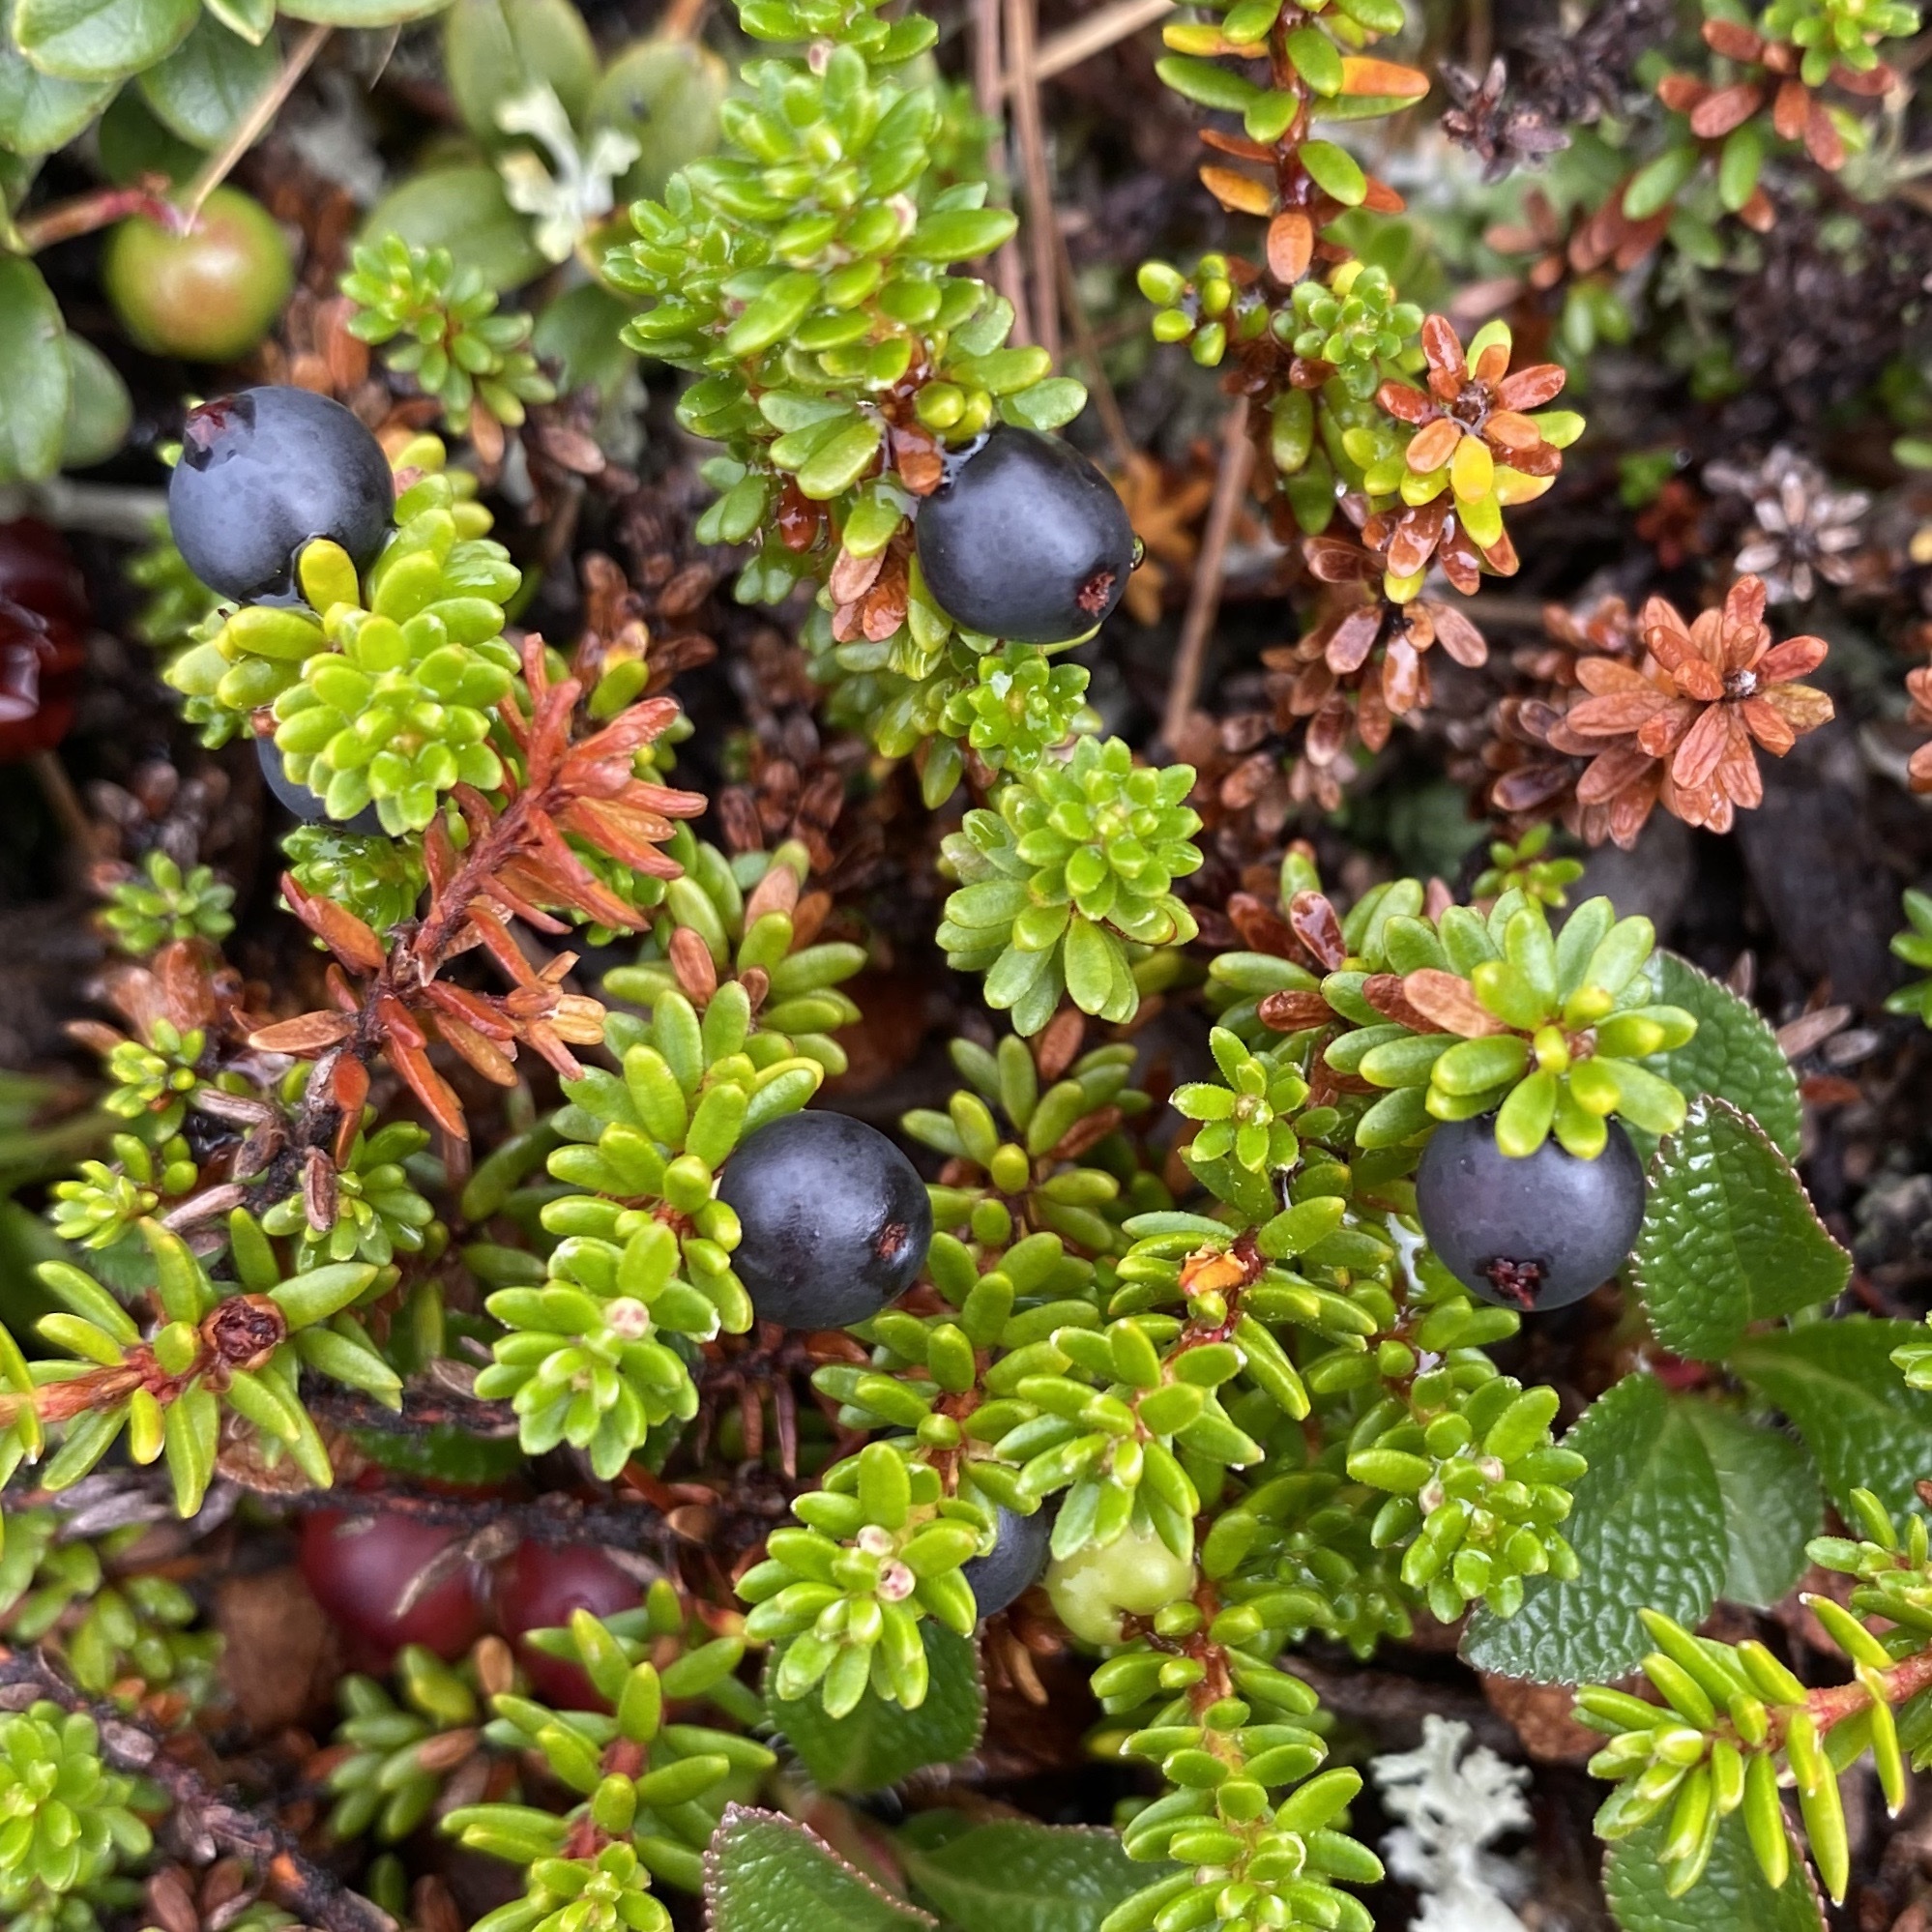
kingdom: Plantae
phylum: Tracheophyta
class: Magnoliopsida
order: Ericales
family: Ericaceae
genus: Empetrum
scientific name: Empetrum nigrum
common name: Black crowberry
